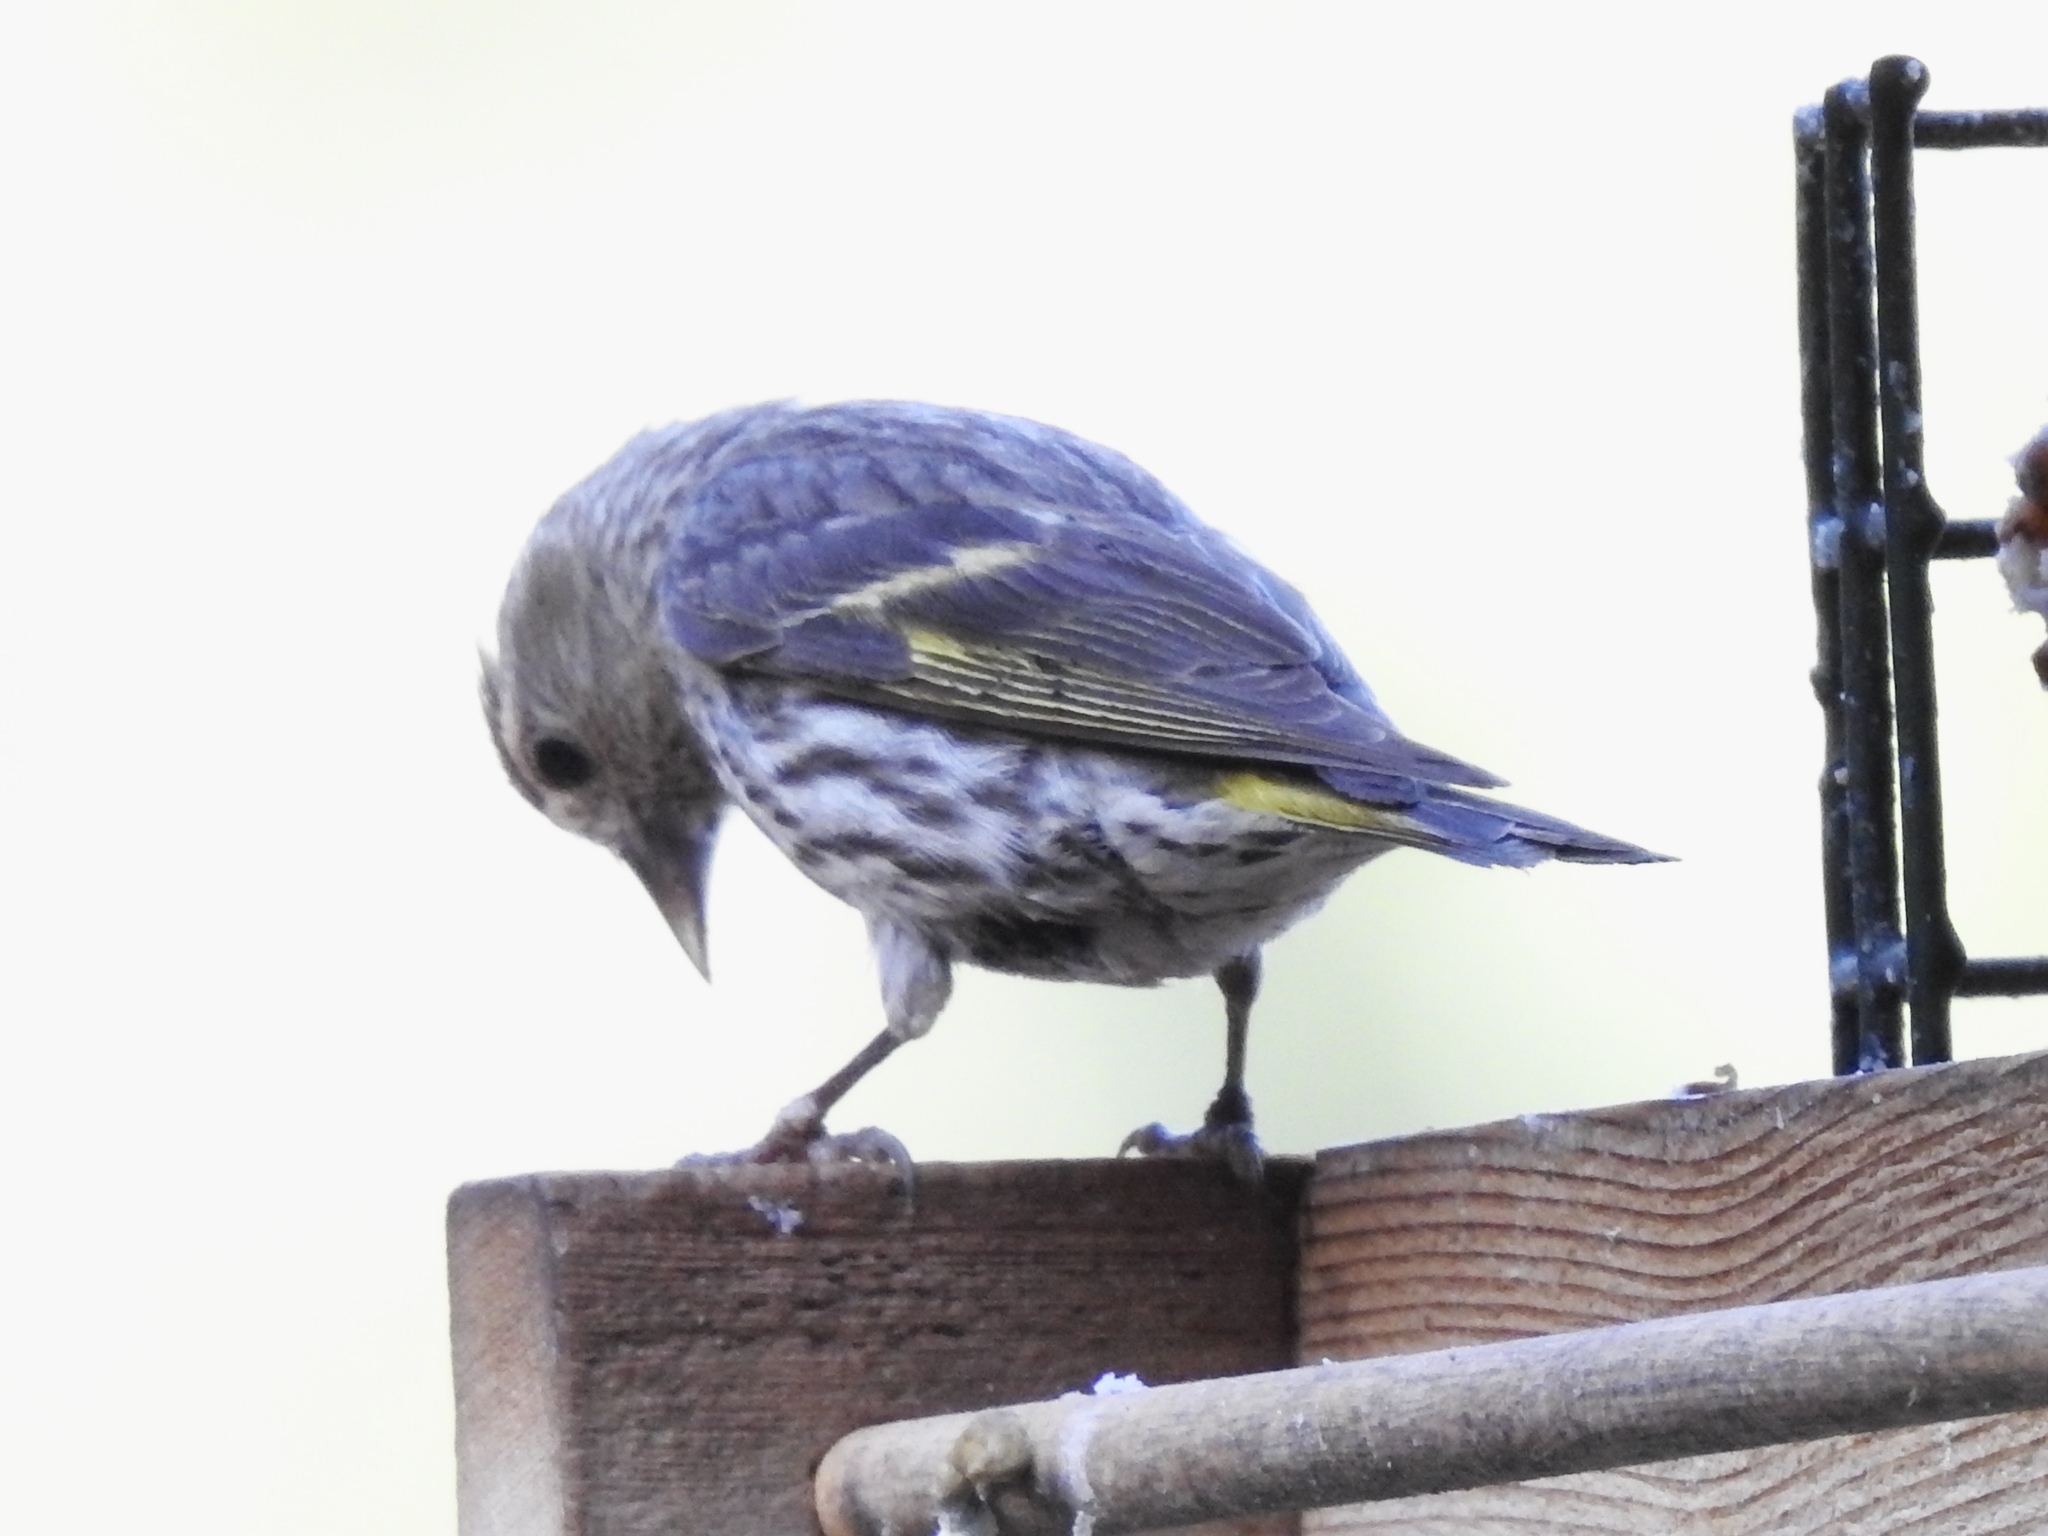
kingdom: Animalia
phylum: Chordata
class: Aves
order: Passeriformes
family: Fringillidae
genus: Spinus
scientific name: Spinus pinus
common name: Pine siskin
